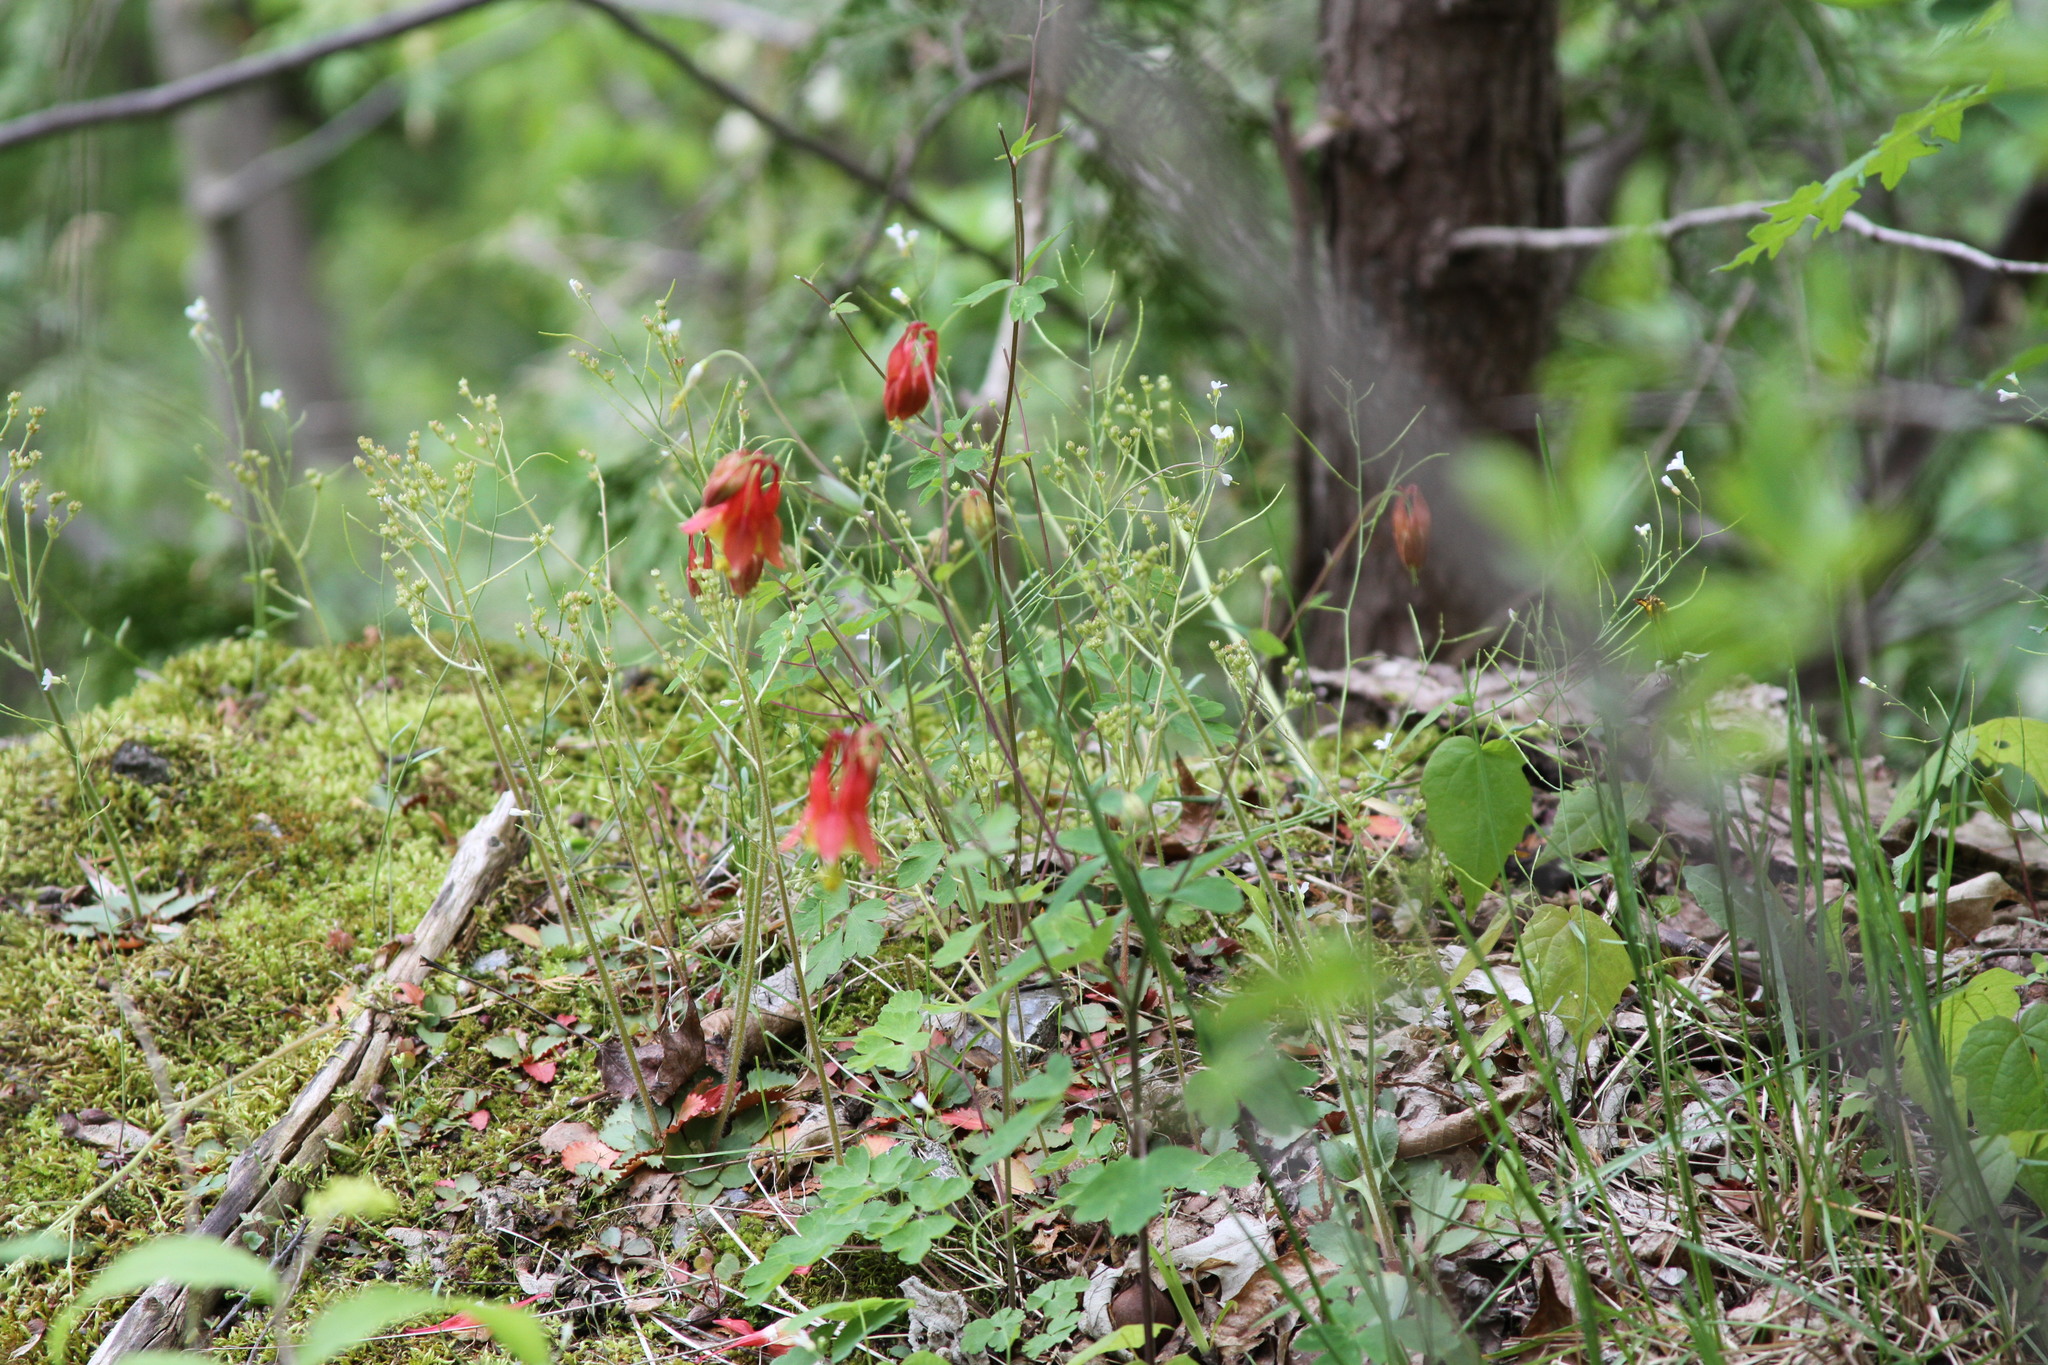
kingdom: Plantae
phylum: Tracheophyta
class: Magnoliopsida
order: Ranunculales
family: Ranunculaceae
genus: Aquilegia
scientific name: Aquilegia canadensis
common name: American columbine
